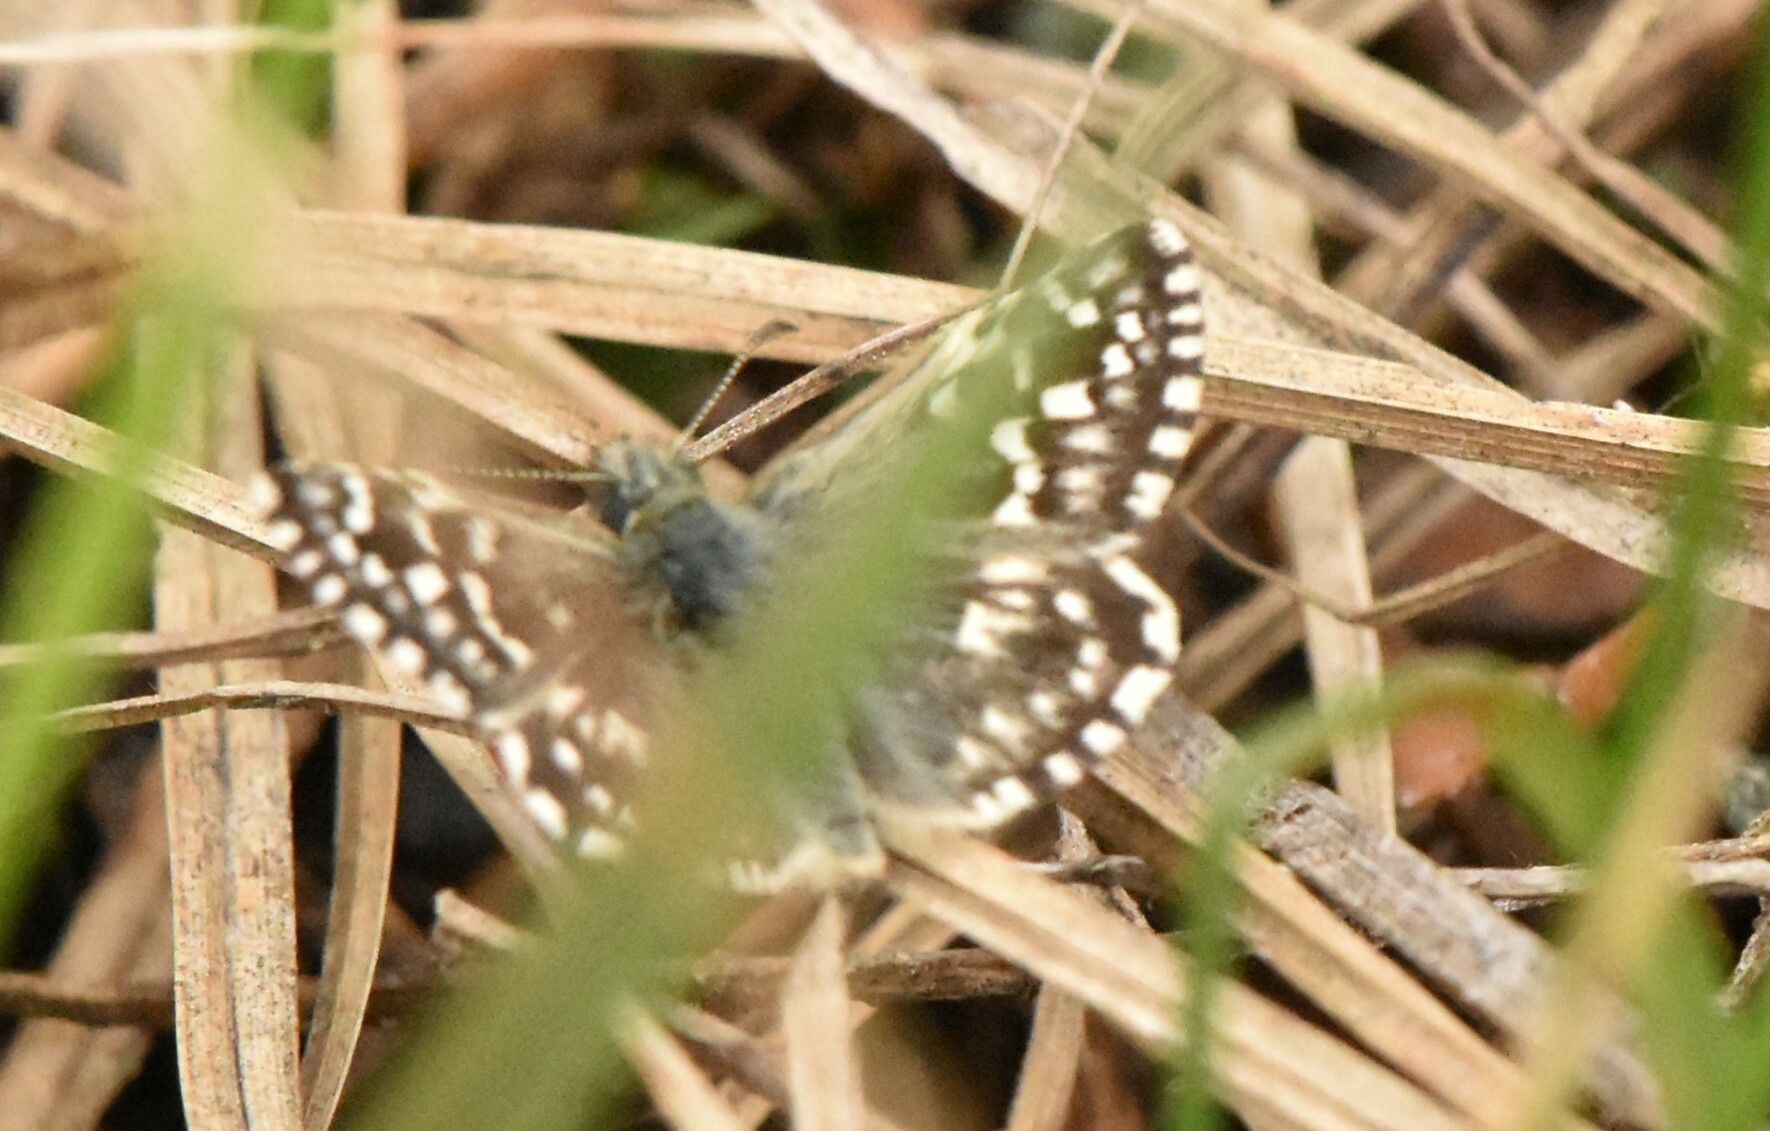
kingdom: Animalia
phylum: Arthropoda
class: Insecta
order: Lepidoptera
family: Hesperiidae
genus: Pyrgus
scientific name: Pyrgus malvae
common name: Grizzled skipper
